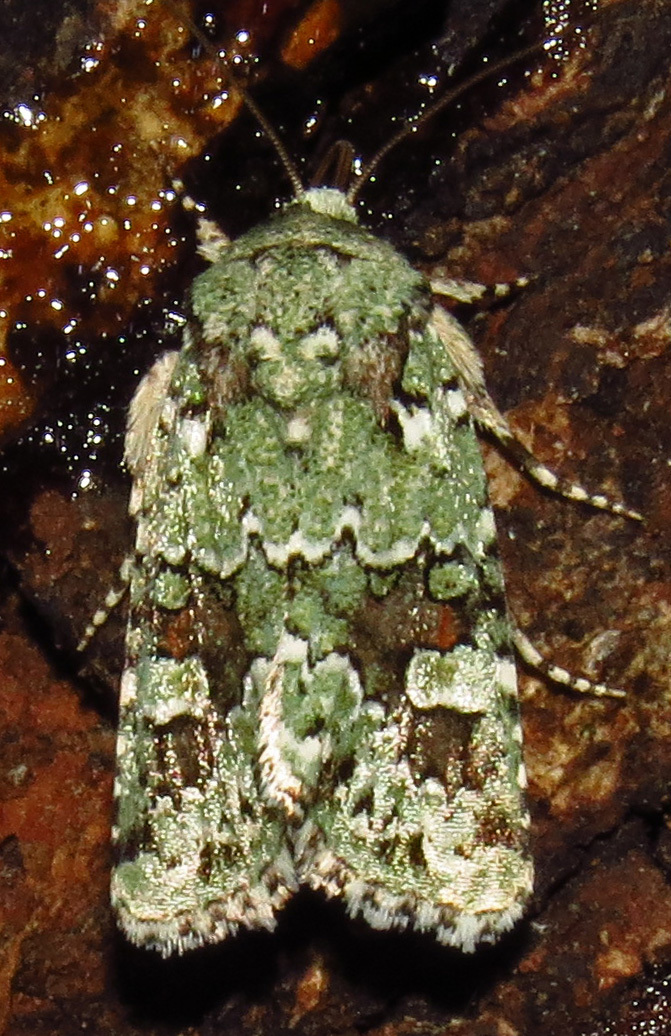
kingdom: Animalia
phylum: Arthropoda
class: Insecta
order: Lepidoptera
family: Noctuidae
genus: Lacinipolia
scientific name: Lacinipolia laudabilis
